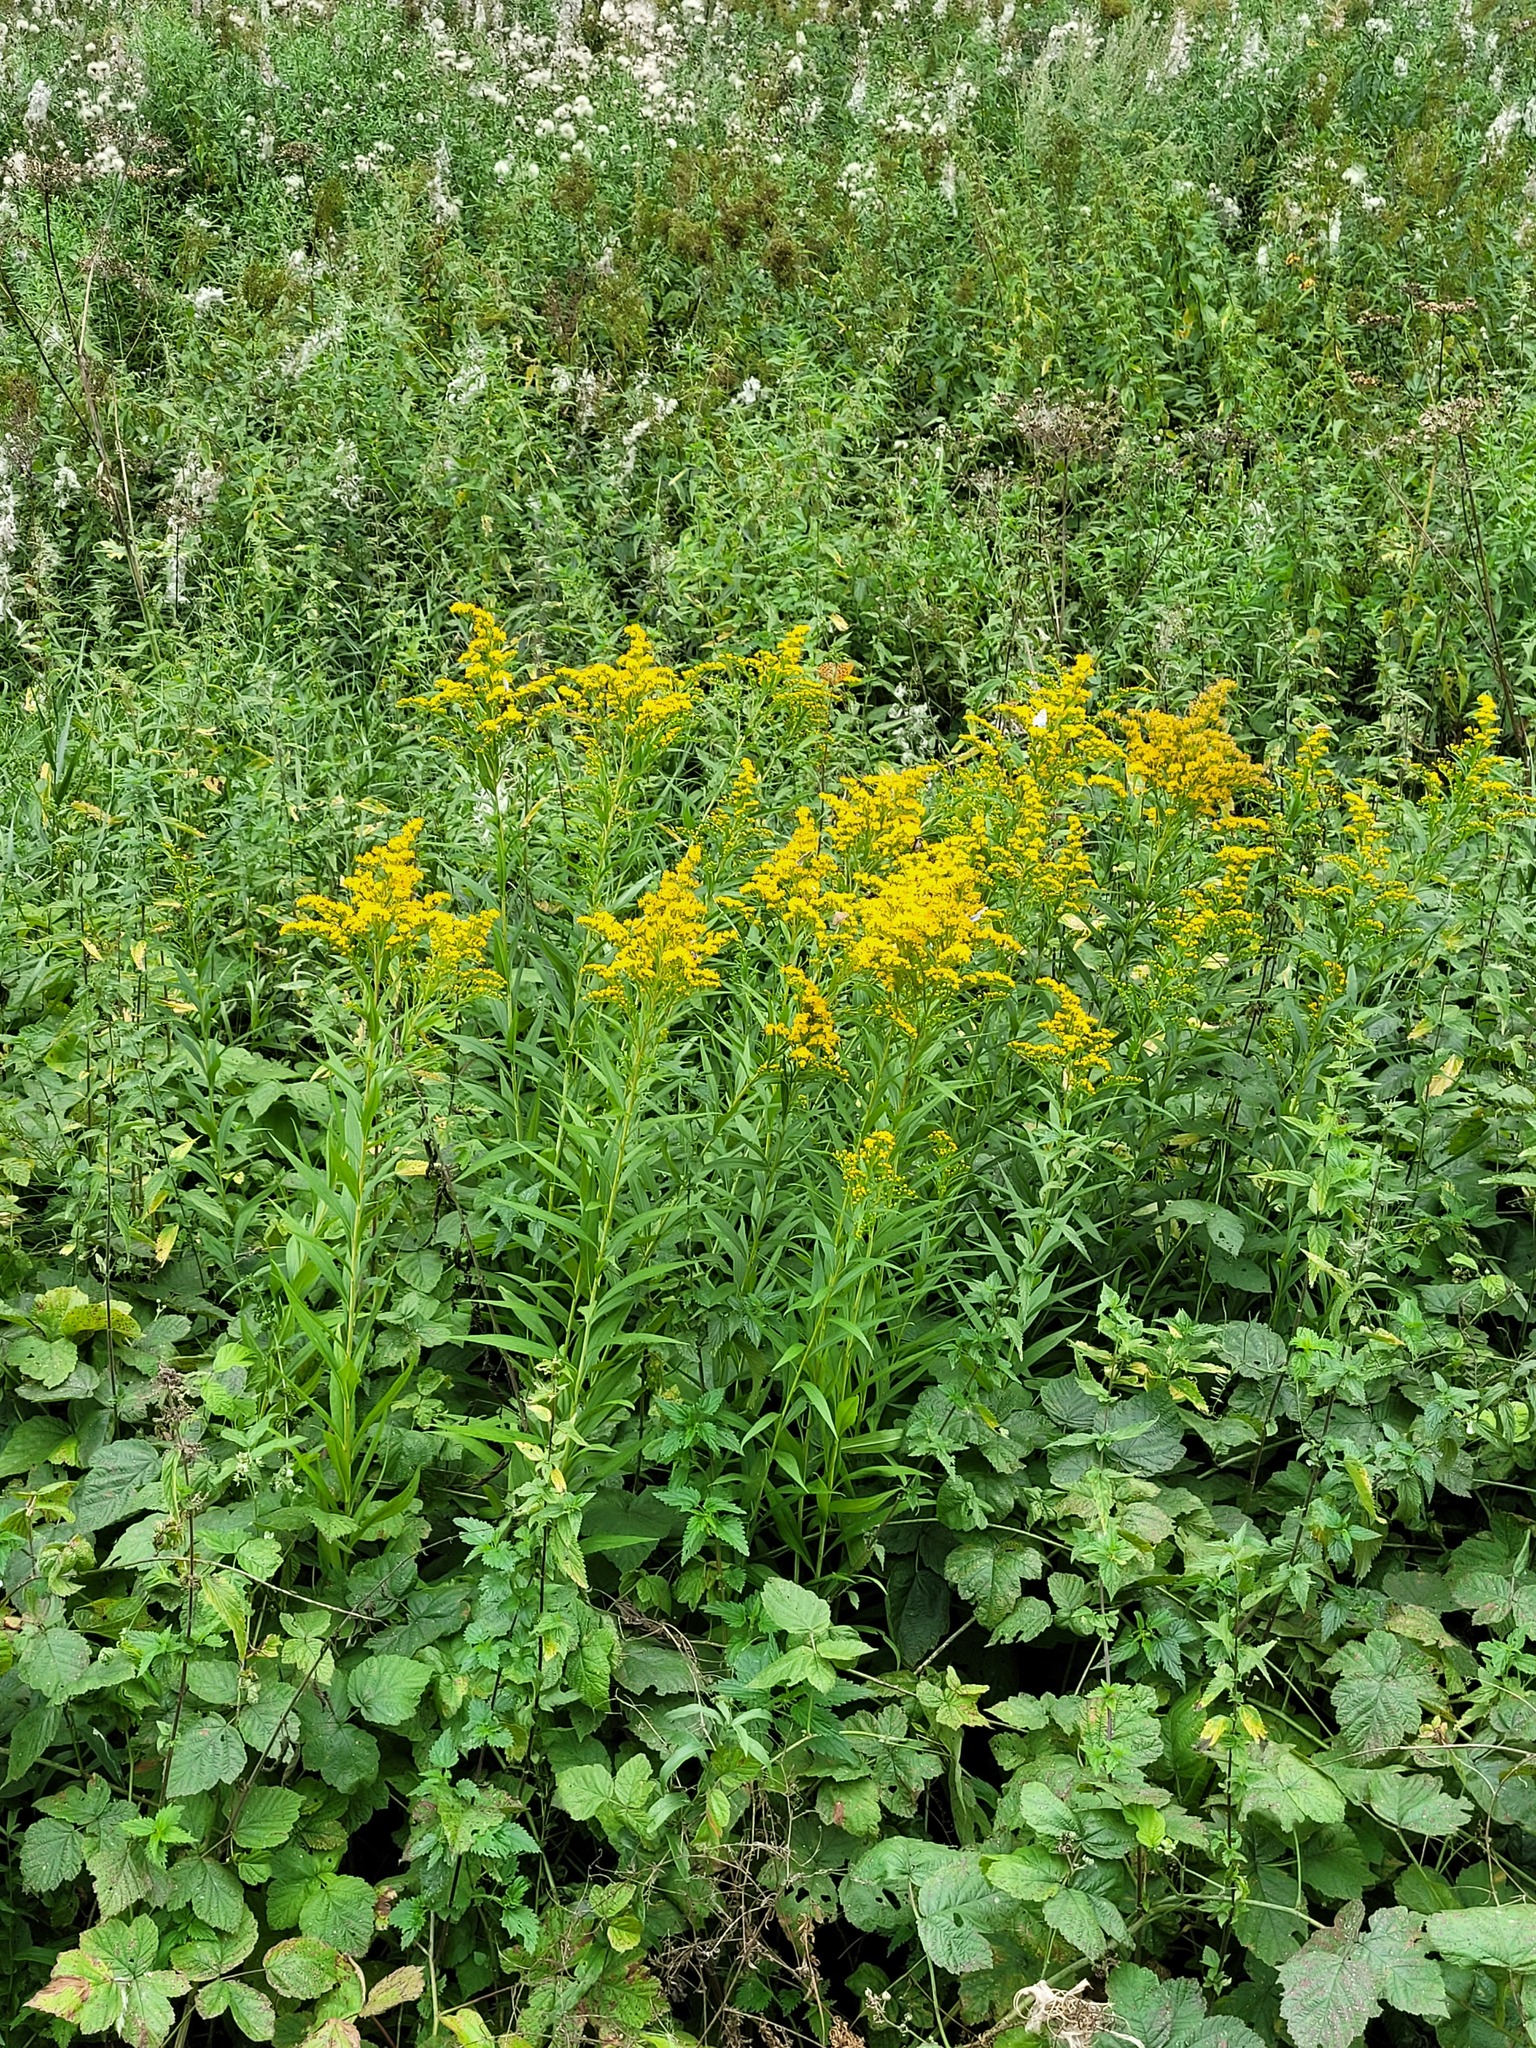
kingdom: Plantae
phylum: Tracheophyta
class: Magnoliopsida
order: Asterales
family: Asteraceae
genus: Solidago
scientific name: Solidago gigantea
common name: Giant goldenrod
